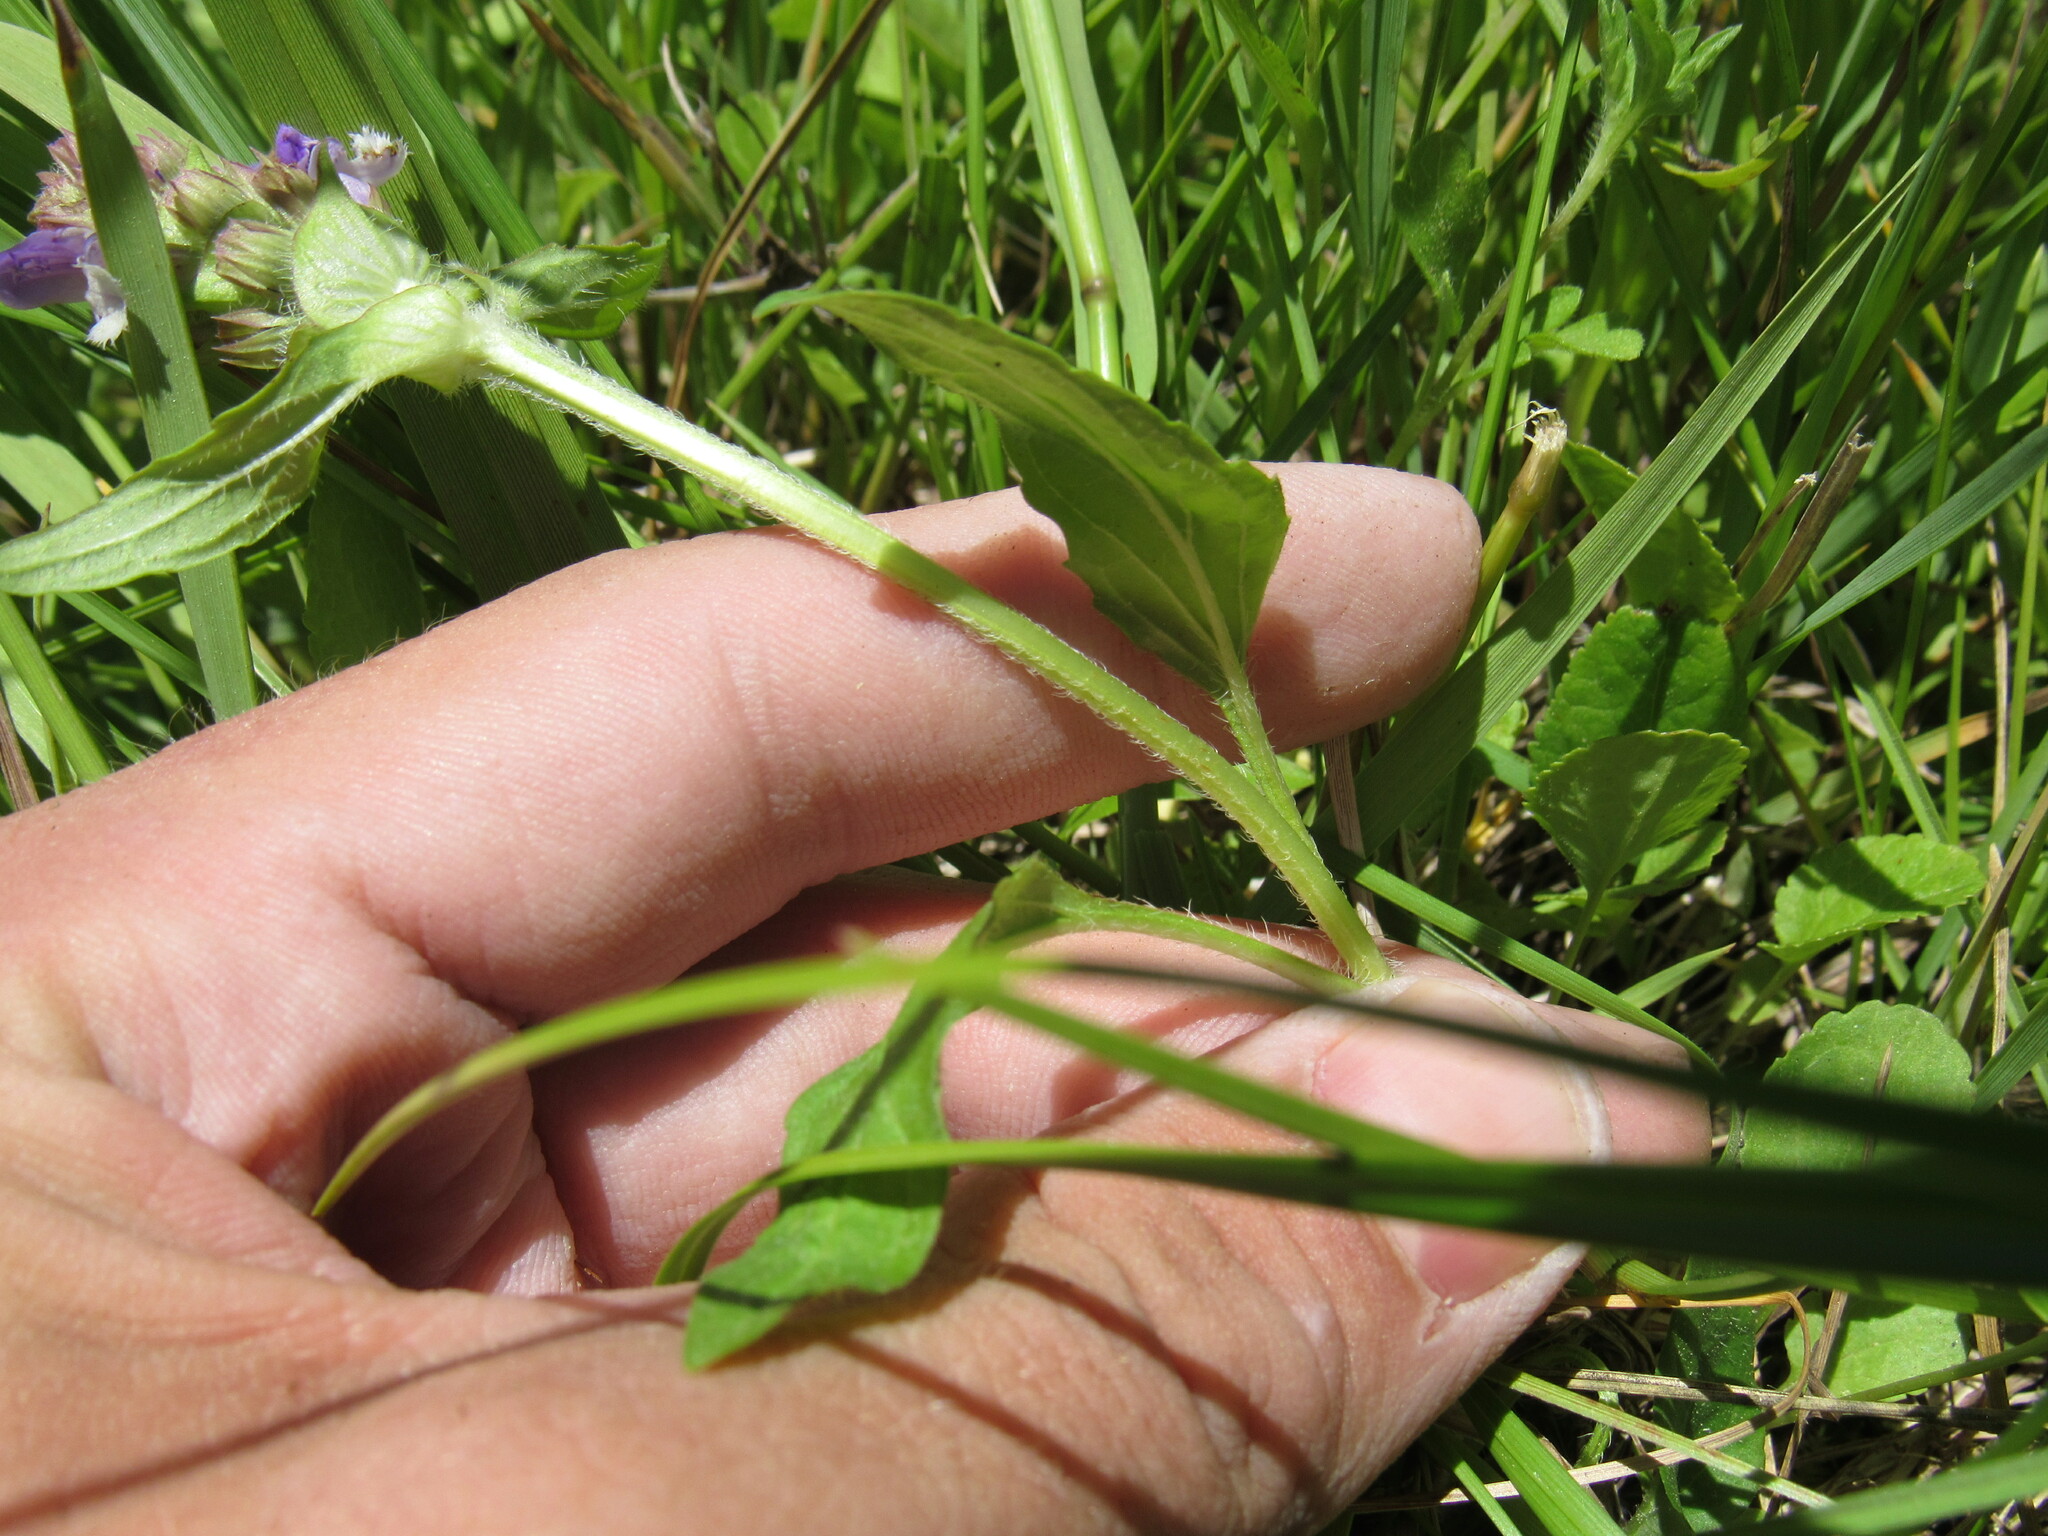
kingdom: Plantae
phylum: Tracheophyta
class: Magnoliopsida
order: Lamiales
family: Lamiaceae
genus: Prunella
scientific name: Prunella vulgaris
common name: Heal-all
